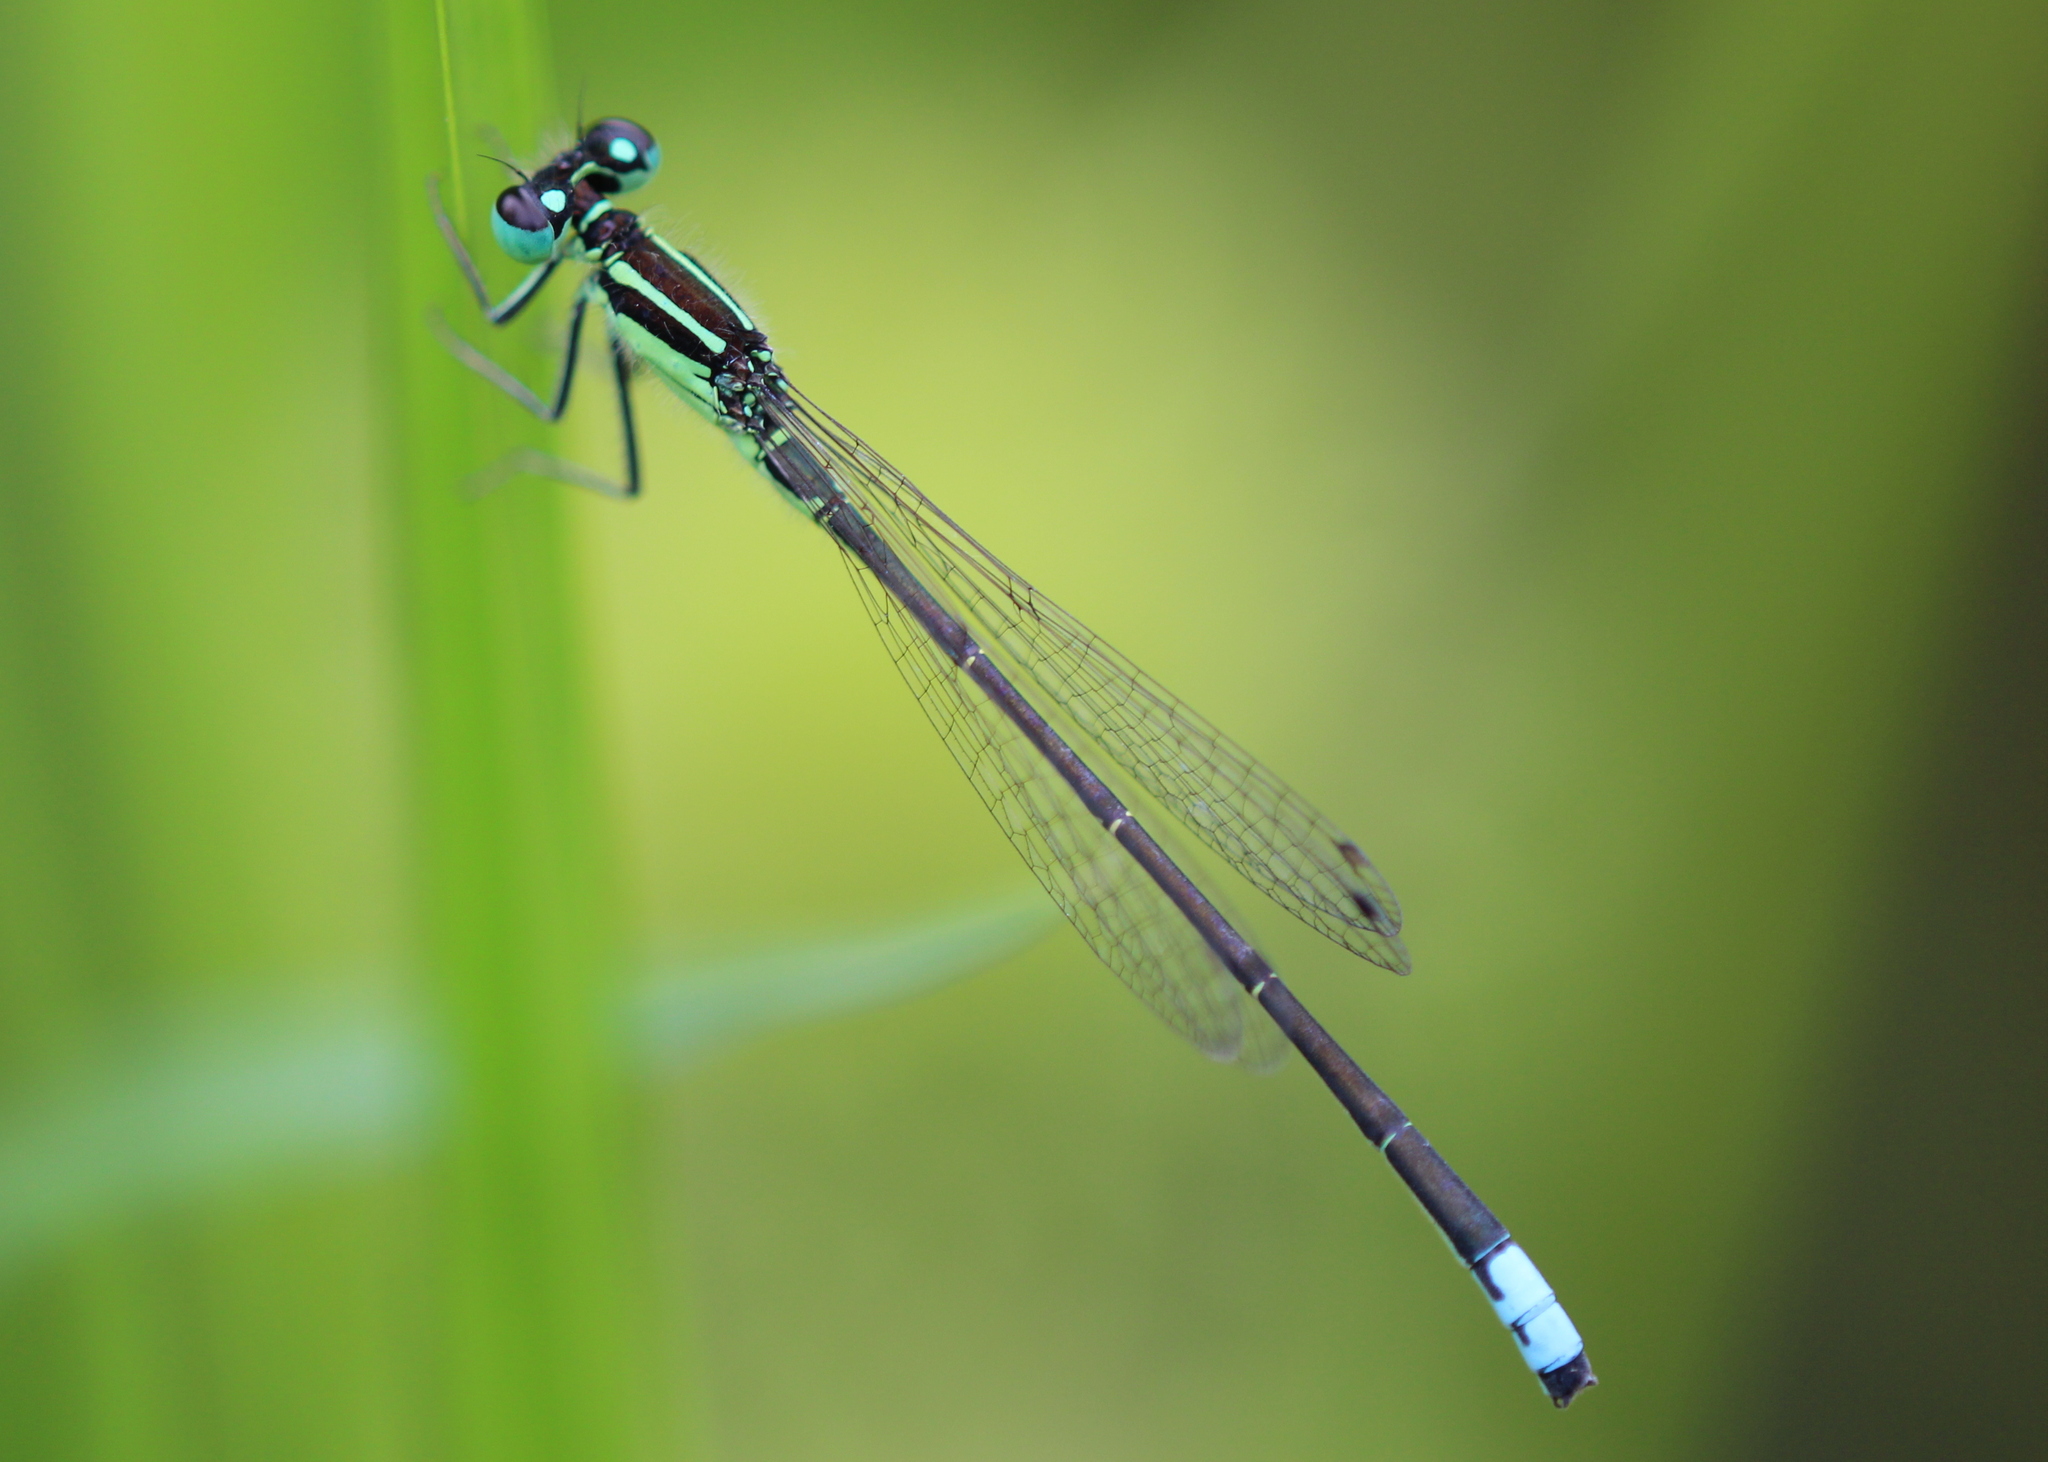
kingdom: Animalia
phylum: Arthropoda
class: Insecta
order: Odonata
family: Coenagrionidae
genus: Ischnura
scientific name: Ischnura verticalis
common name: Eastern forktail
